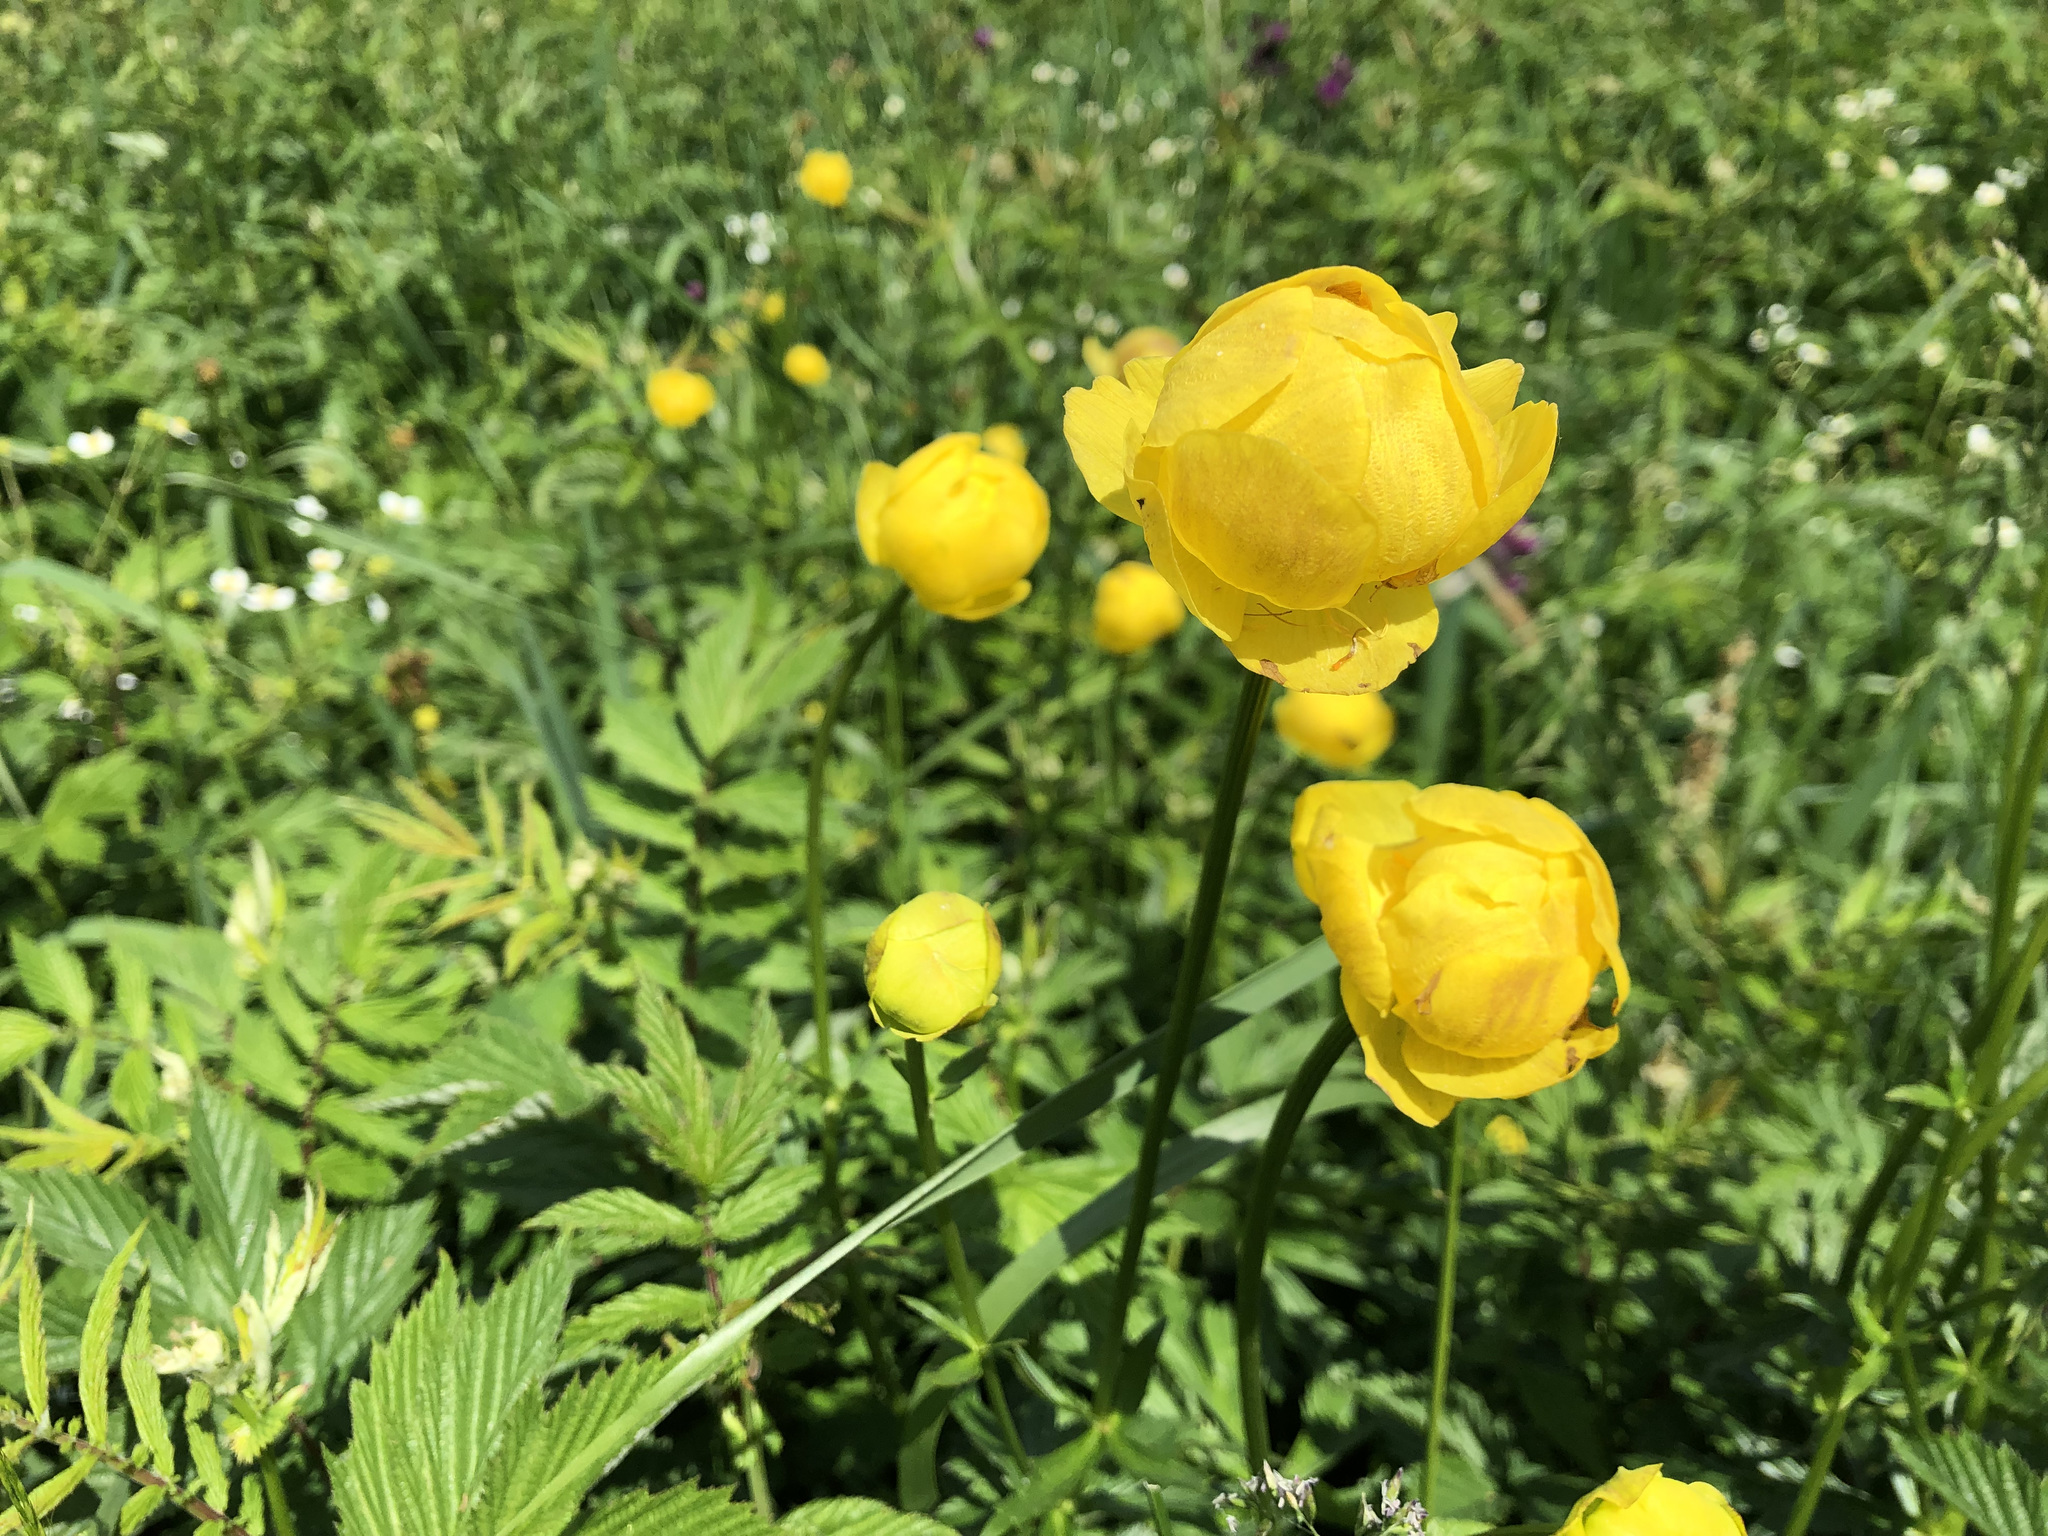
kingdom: Plantae
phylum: Tracheophyta
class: Magnoliopsida
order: Ranunculales
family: Ranunculaceae
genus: Trollius
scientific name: Trollius europaeus
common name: European globeflower
